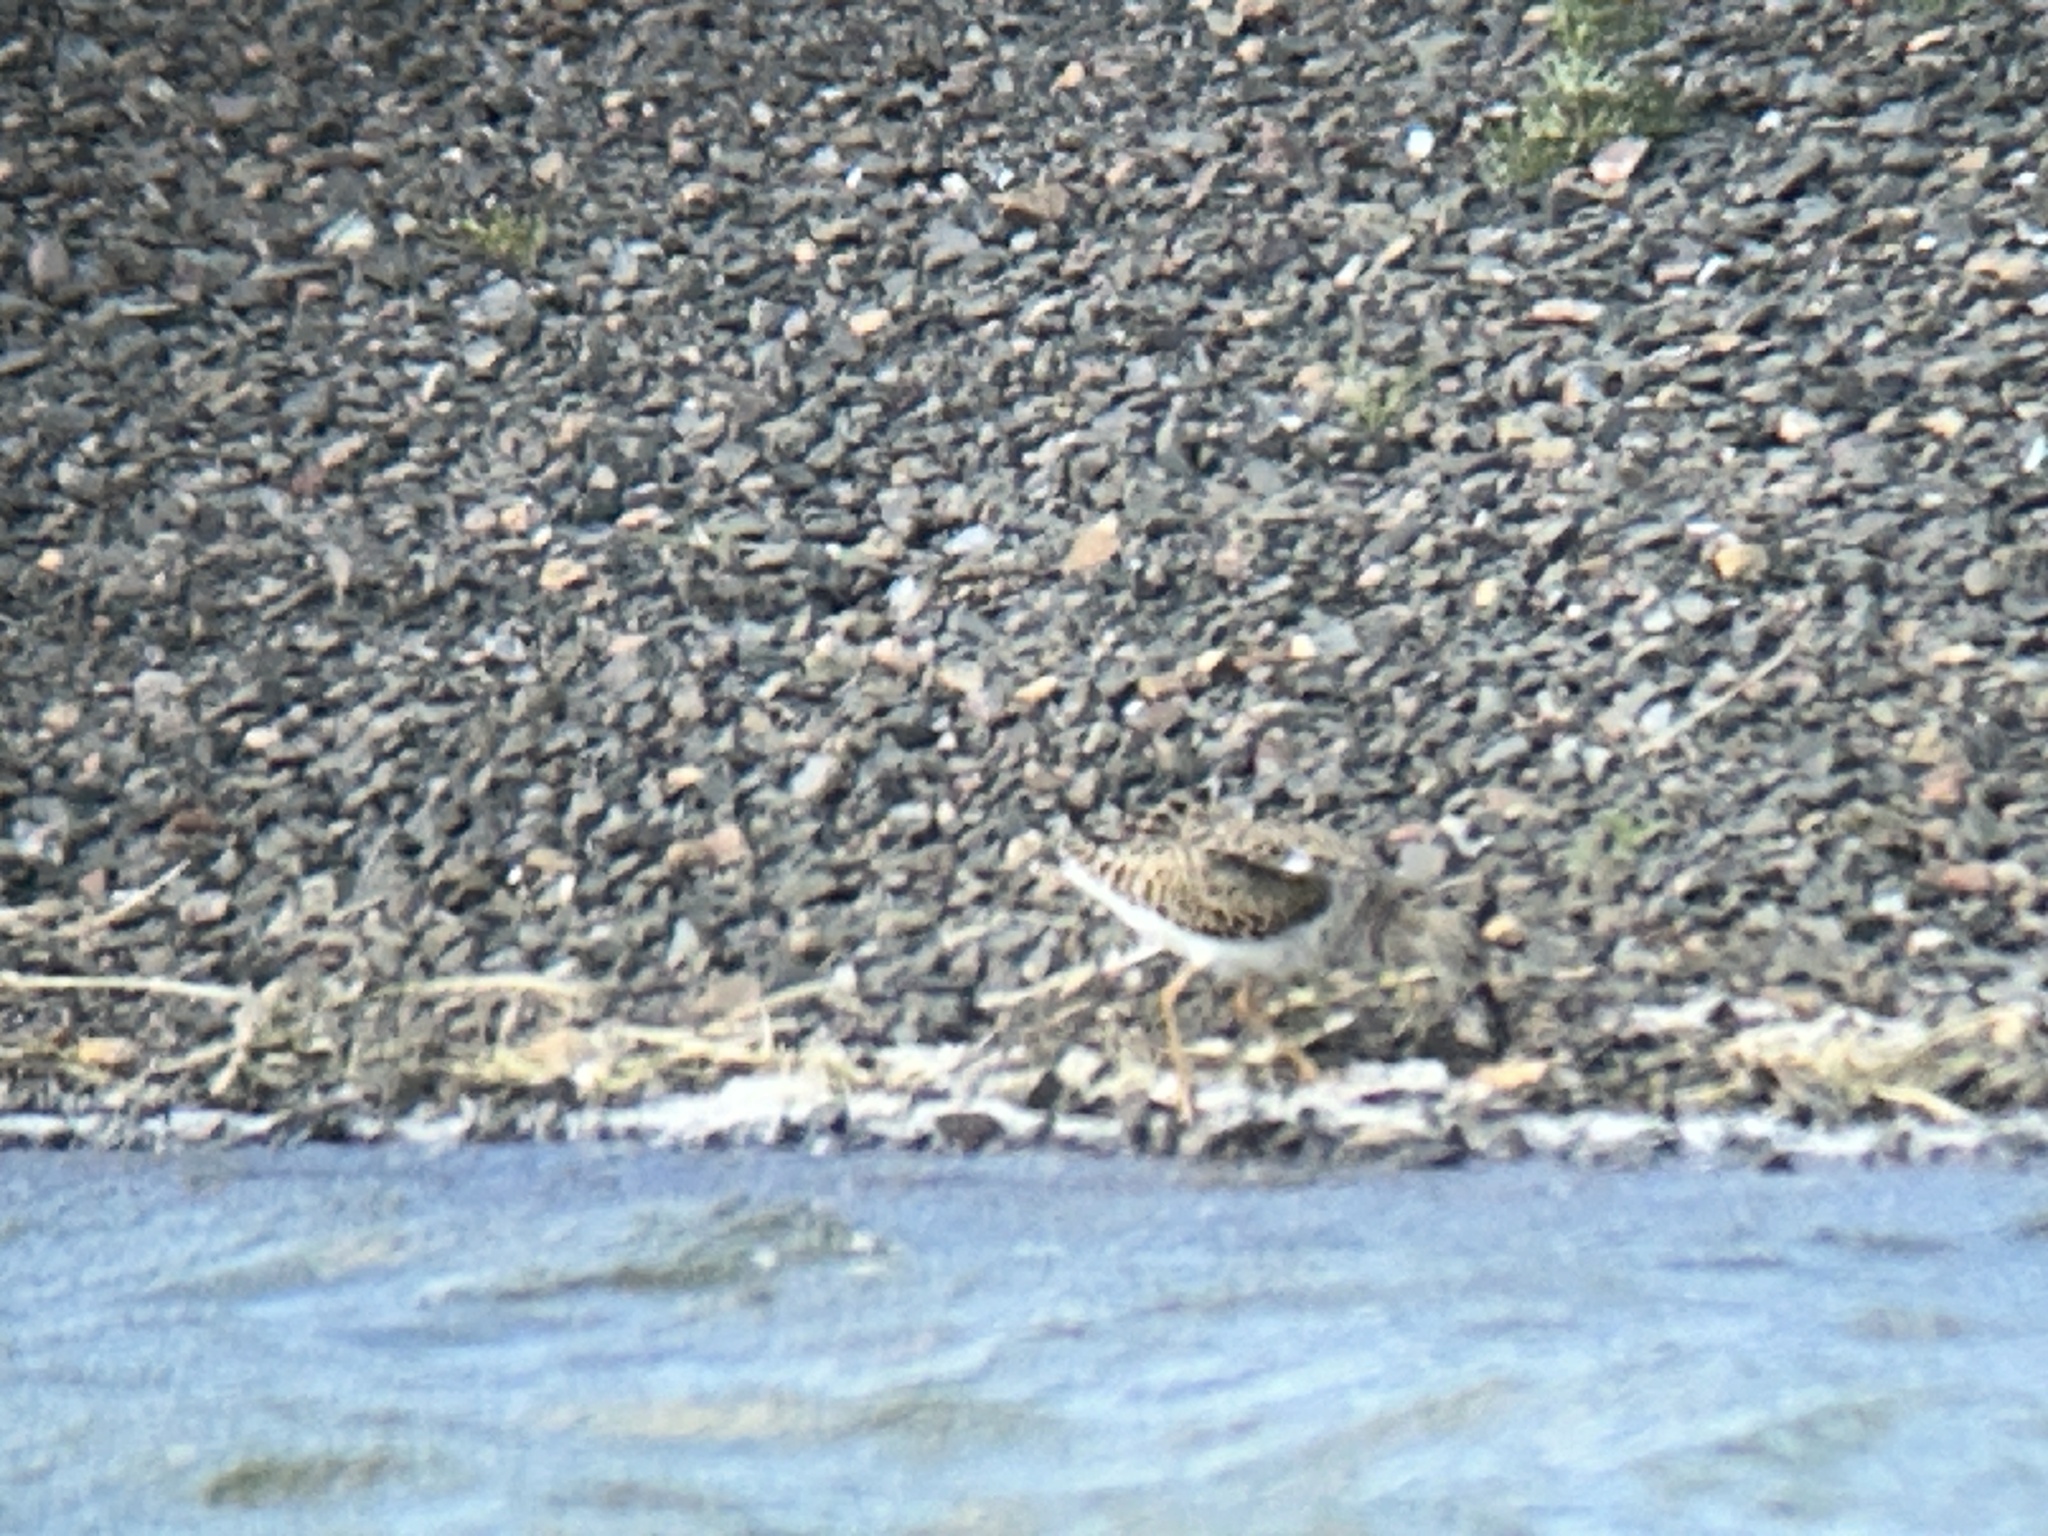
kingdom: Animalia
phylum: Chordata
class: Aves
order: Charadriiformes
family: Scolopacidae
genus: Calidris
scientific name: Calidris pugnax
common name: Ruff
